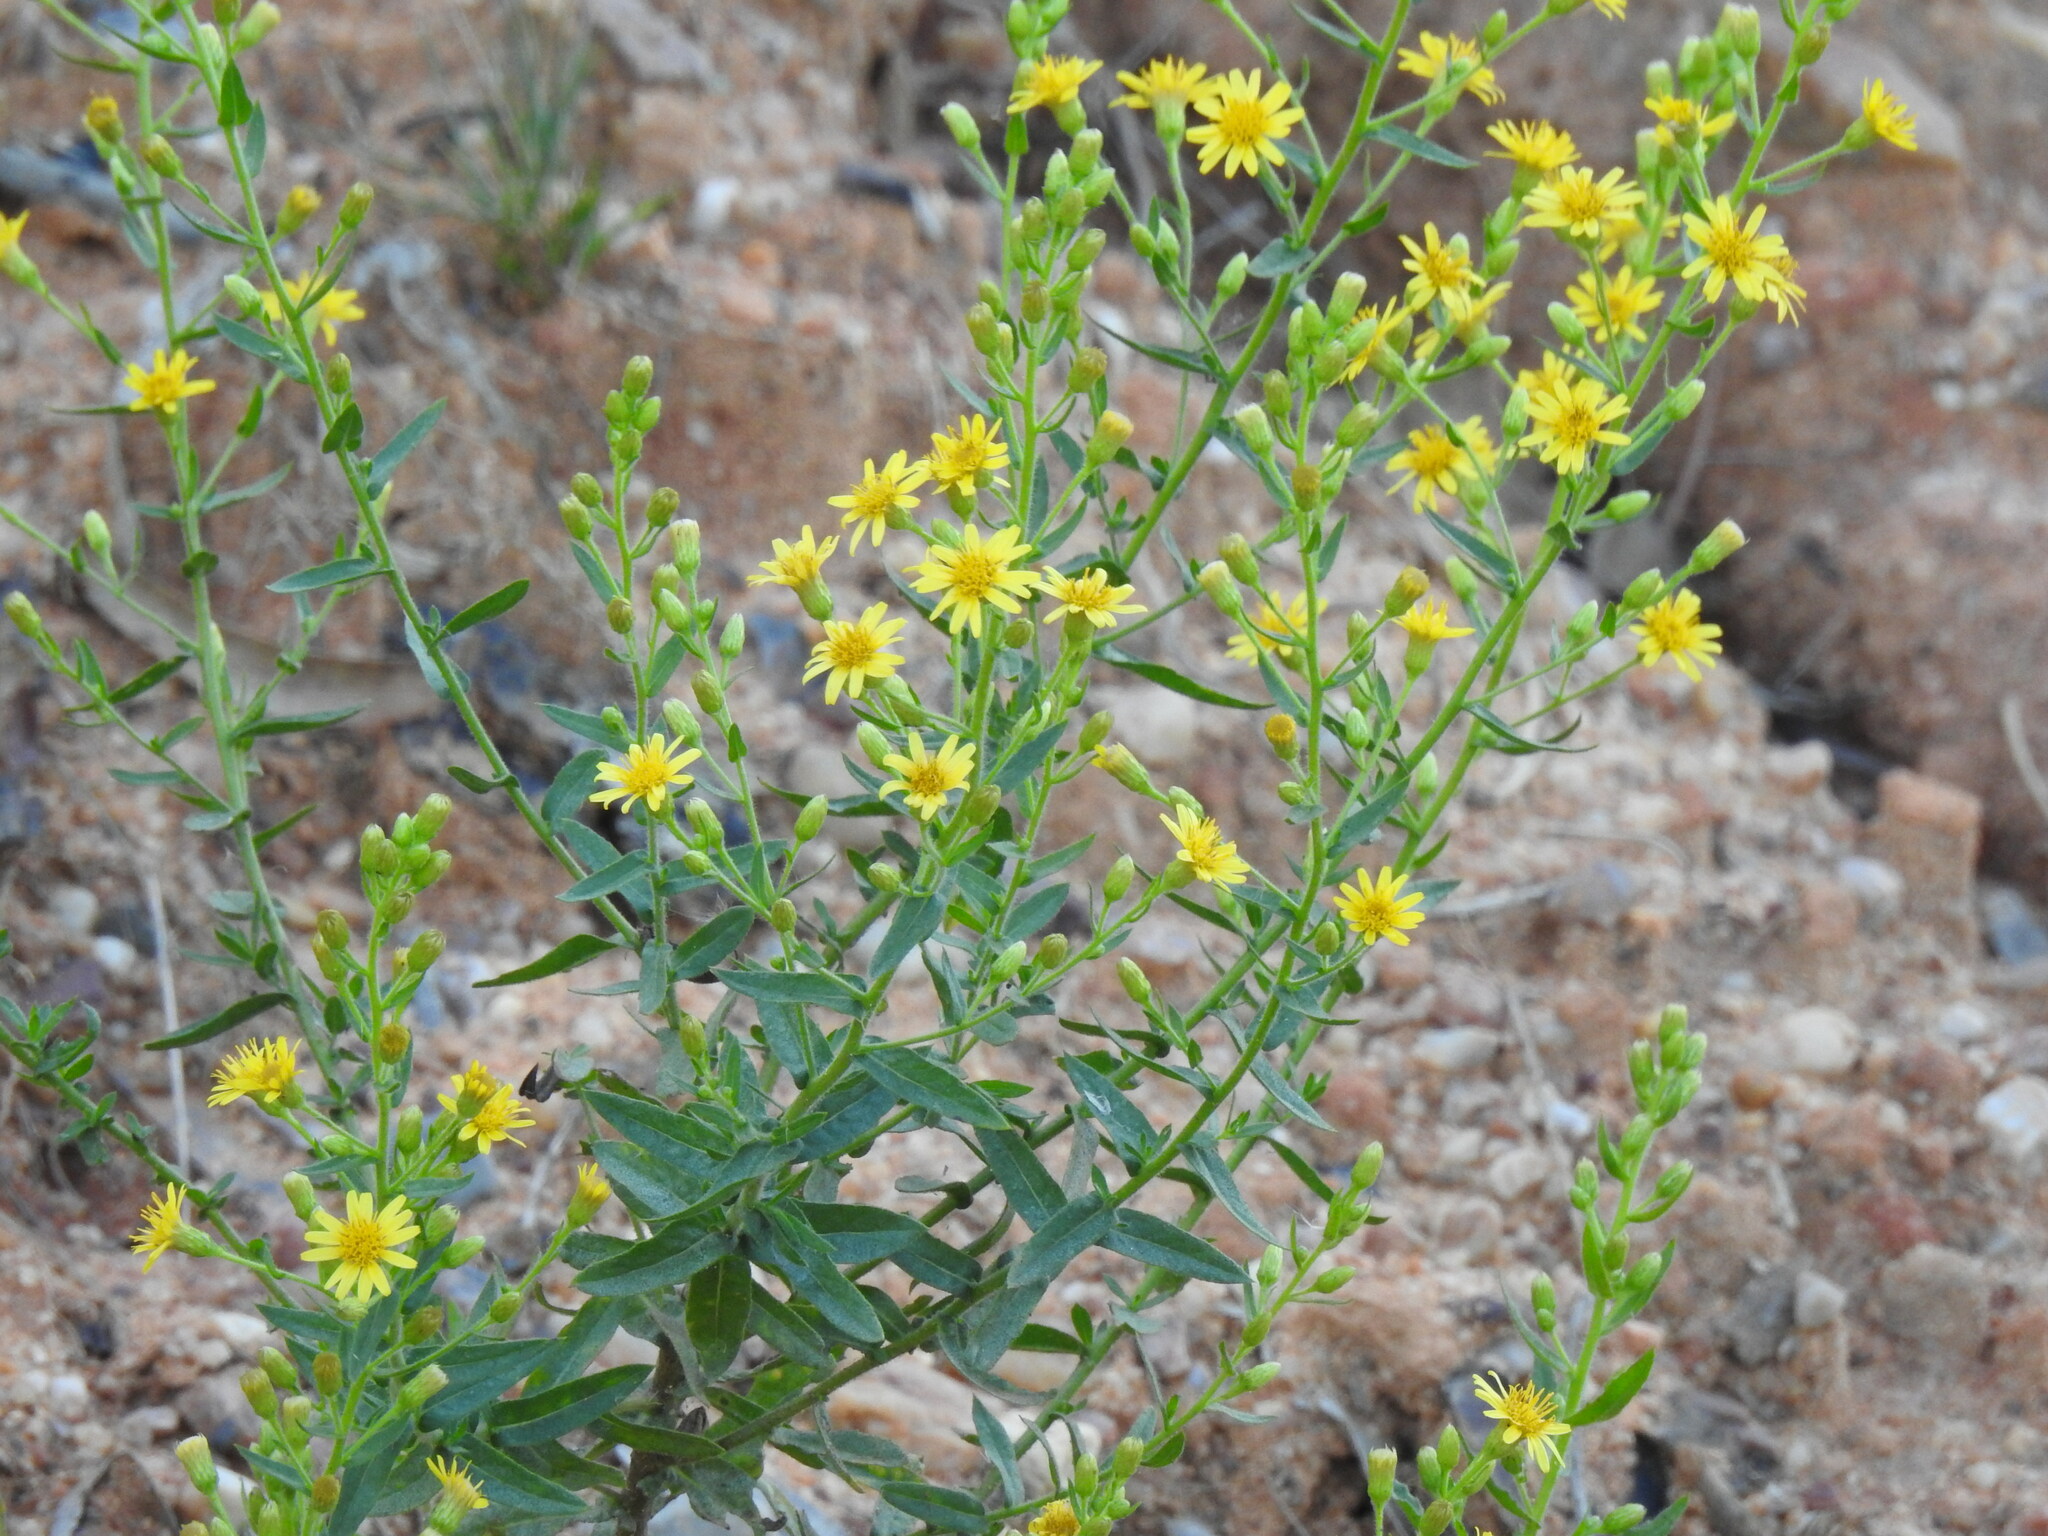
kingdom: Plantae
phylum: Tracheophyta
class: Magnoliopsida
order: Asterales
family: Asteraceae
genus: Dittrichia
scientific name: Dittrichia viscosa
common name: Woody fleabane
